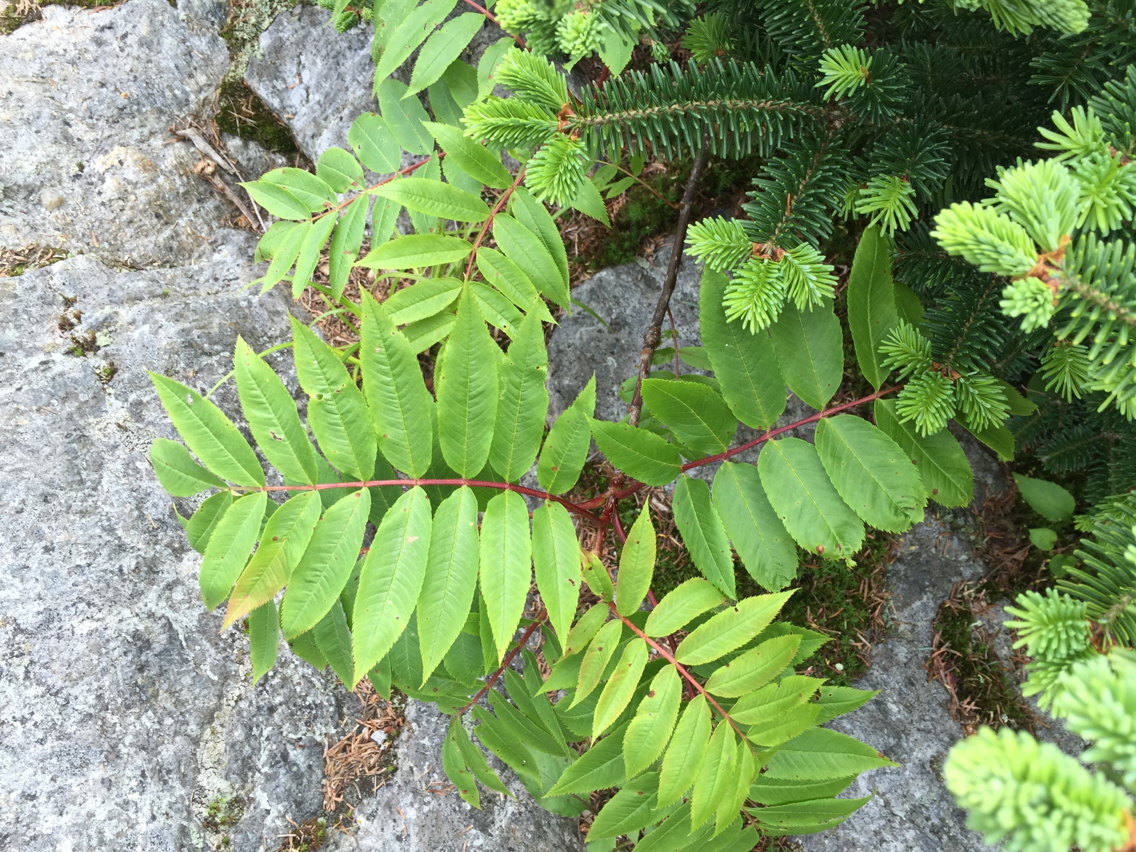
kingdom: Plantae
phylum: Tracheophyta
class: Magnoliopsida
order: Rosales
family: Rosaceae
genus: Sorbus
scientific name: Sorbus americana
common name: American mountain-ash
